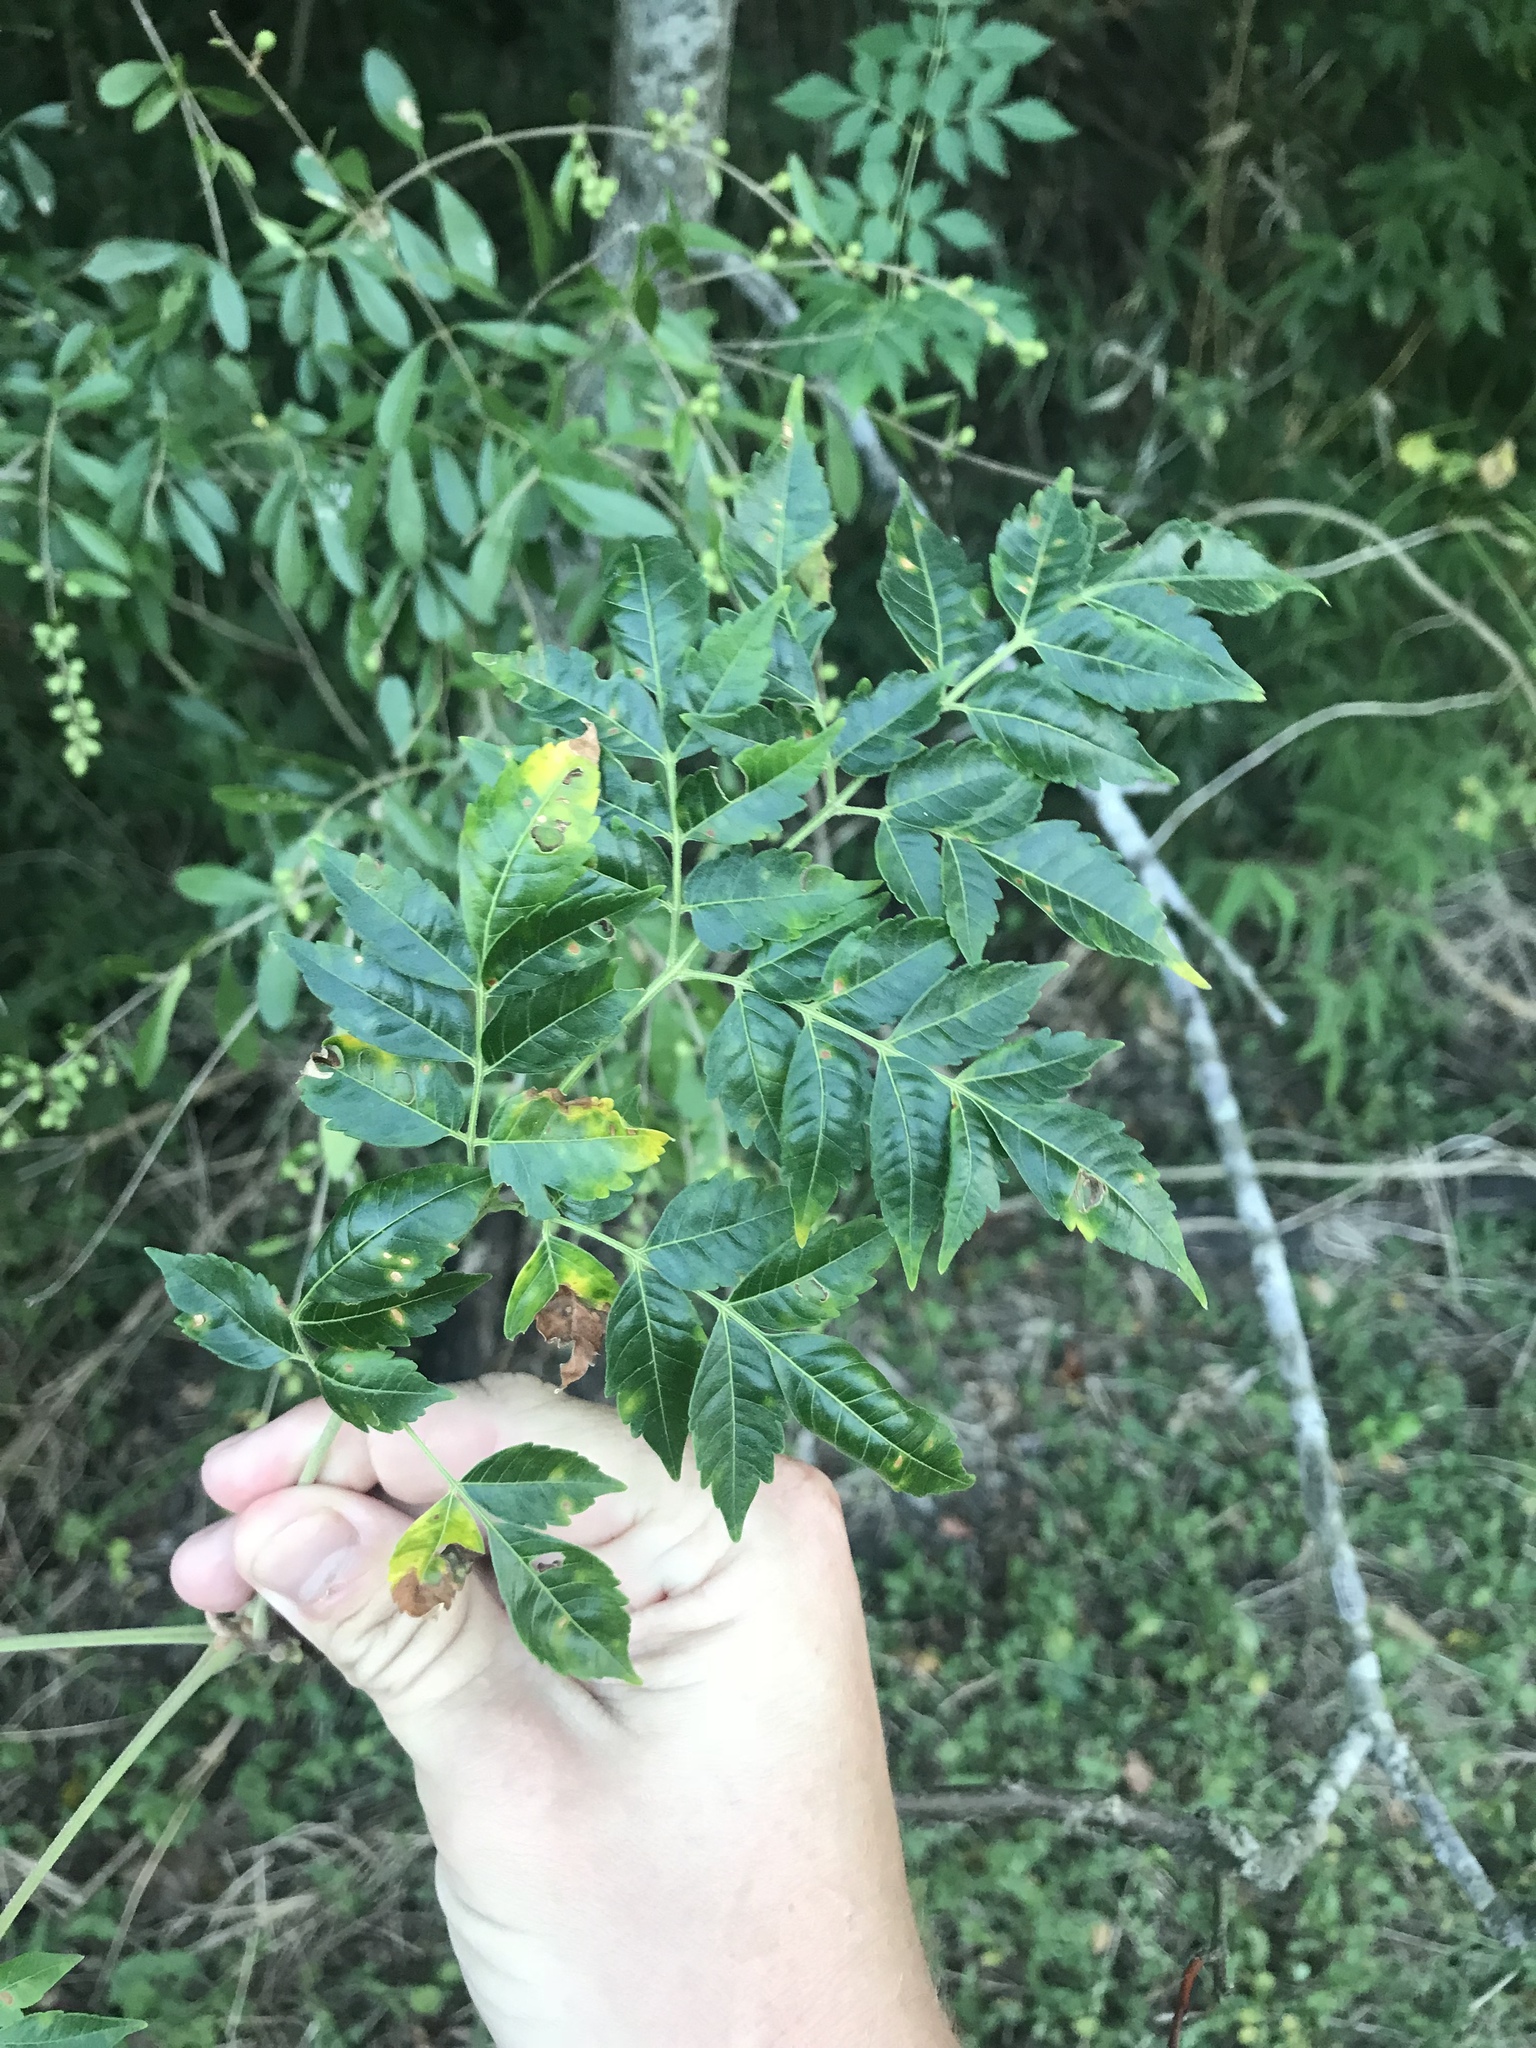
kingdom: Plantae
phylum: Tracheophyta
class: Magnoliopsida
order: Sapindales
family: Meliaceae
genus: Melia
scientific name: Melia azedarach
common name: Chinaberrytree
